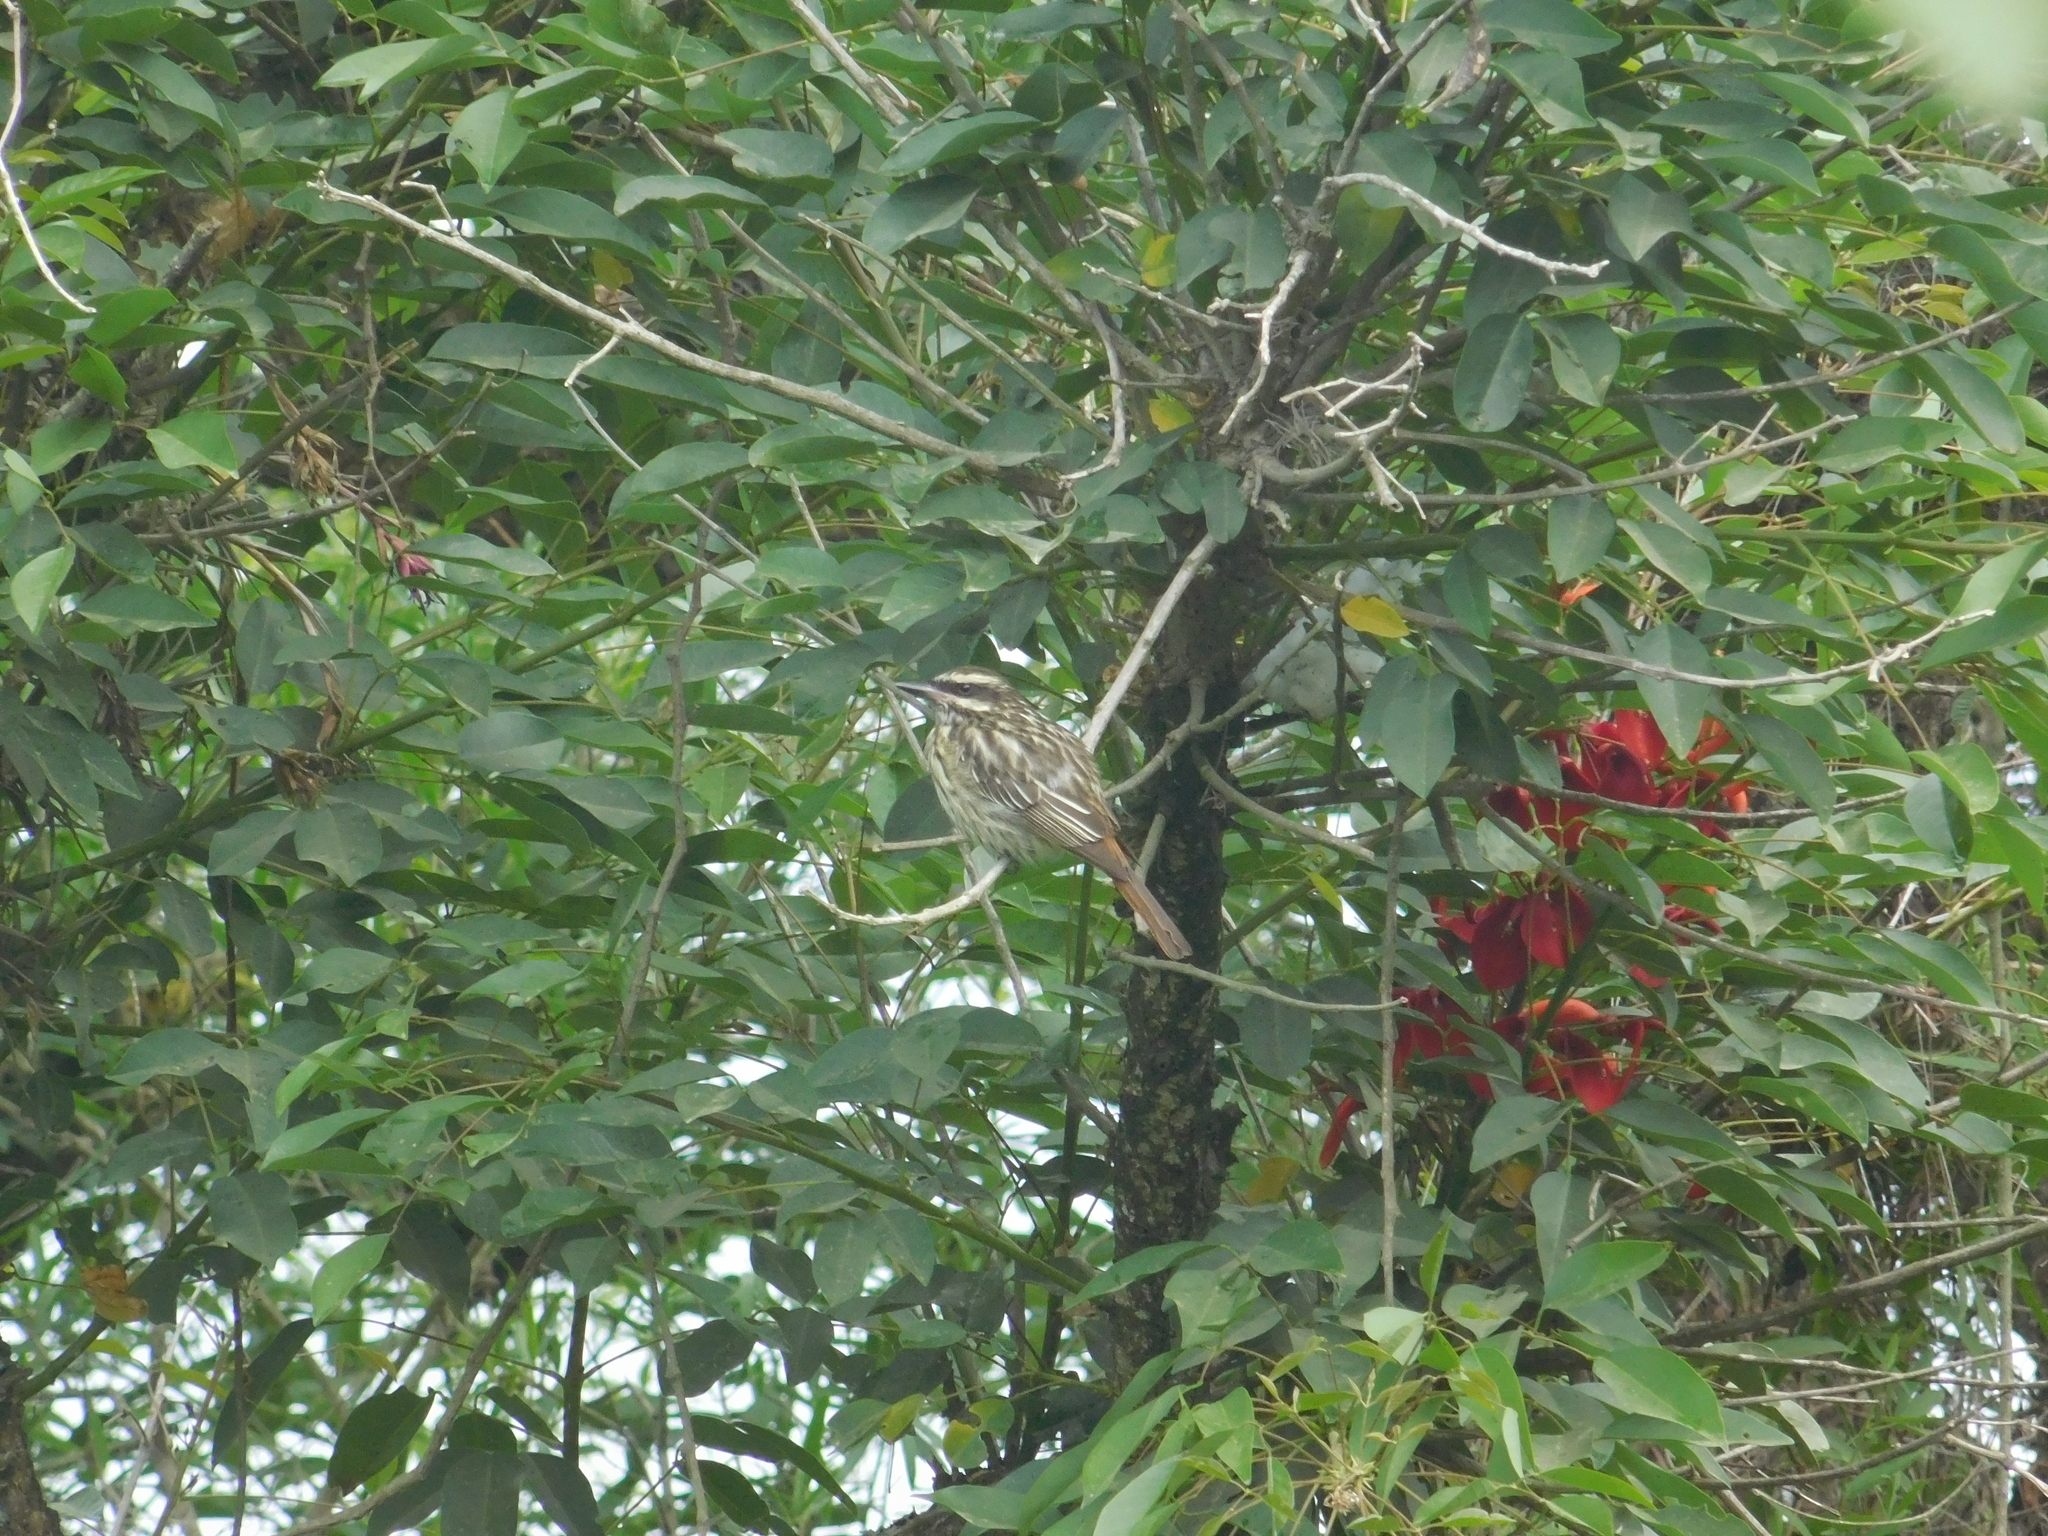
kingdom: Animalia
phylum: Chordata
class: Aves
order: Passeriformes
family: Tyrannidae
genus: Myiodynastes
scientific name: Myiodynastes maculatus
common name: Streaked flycatcher
